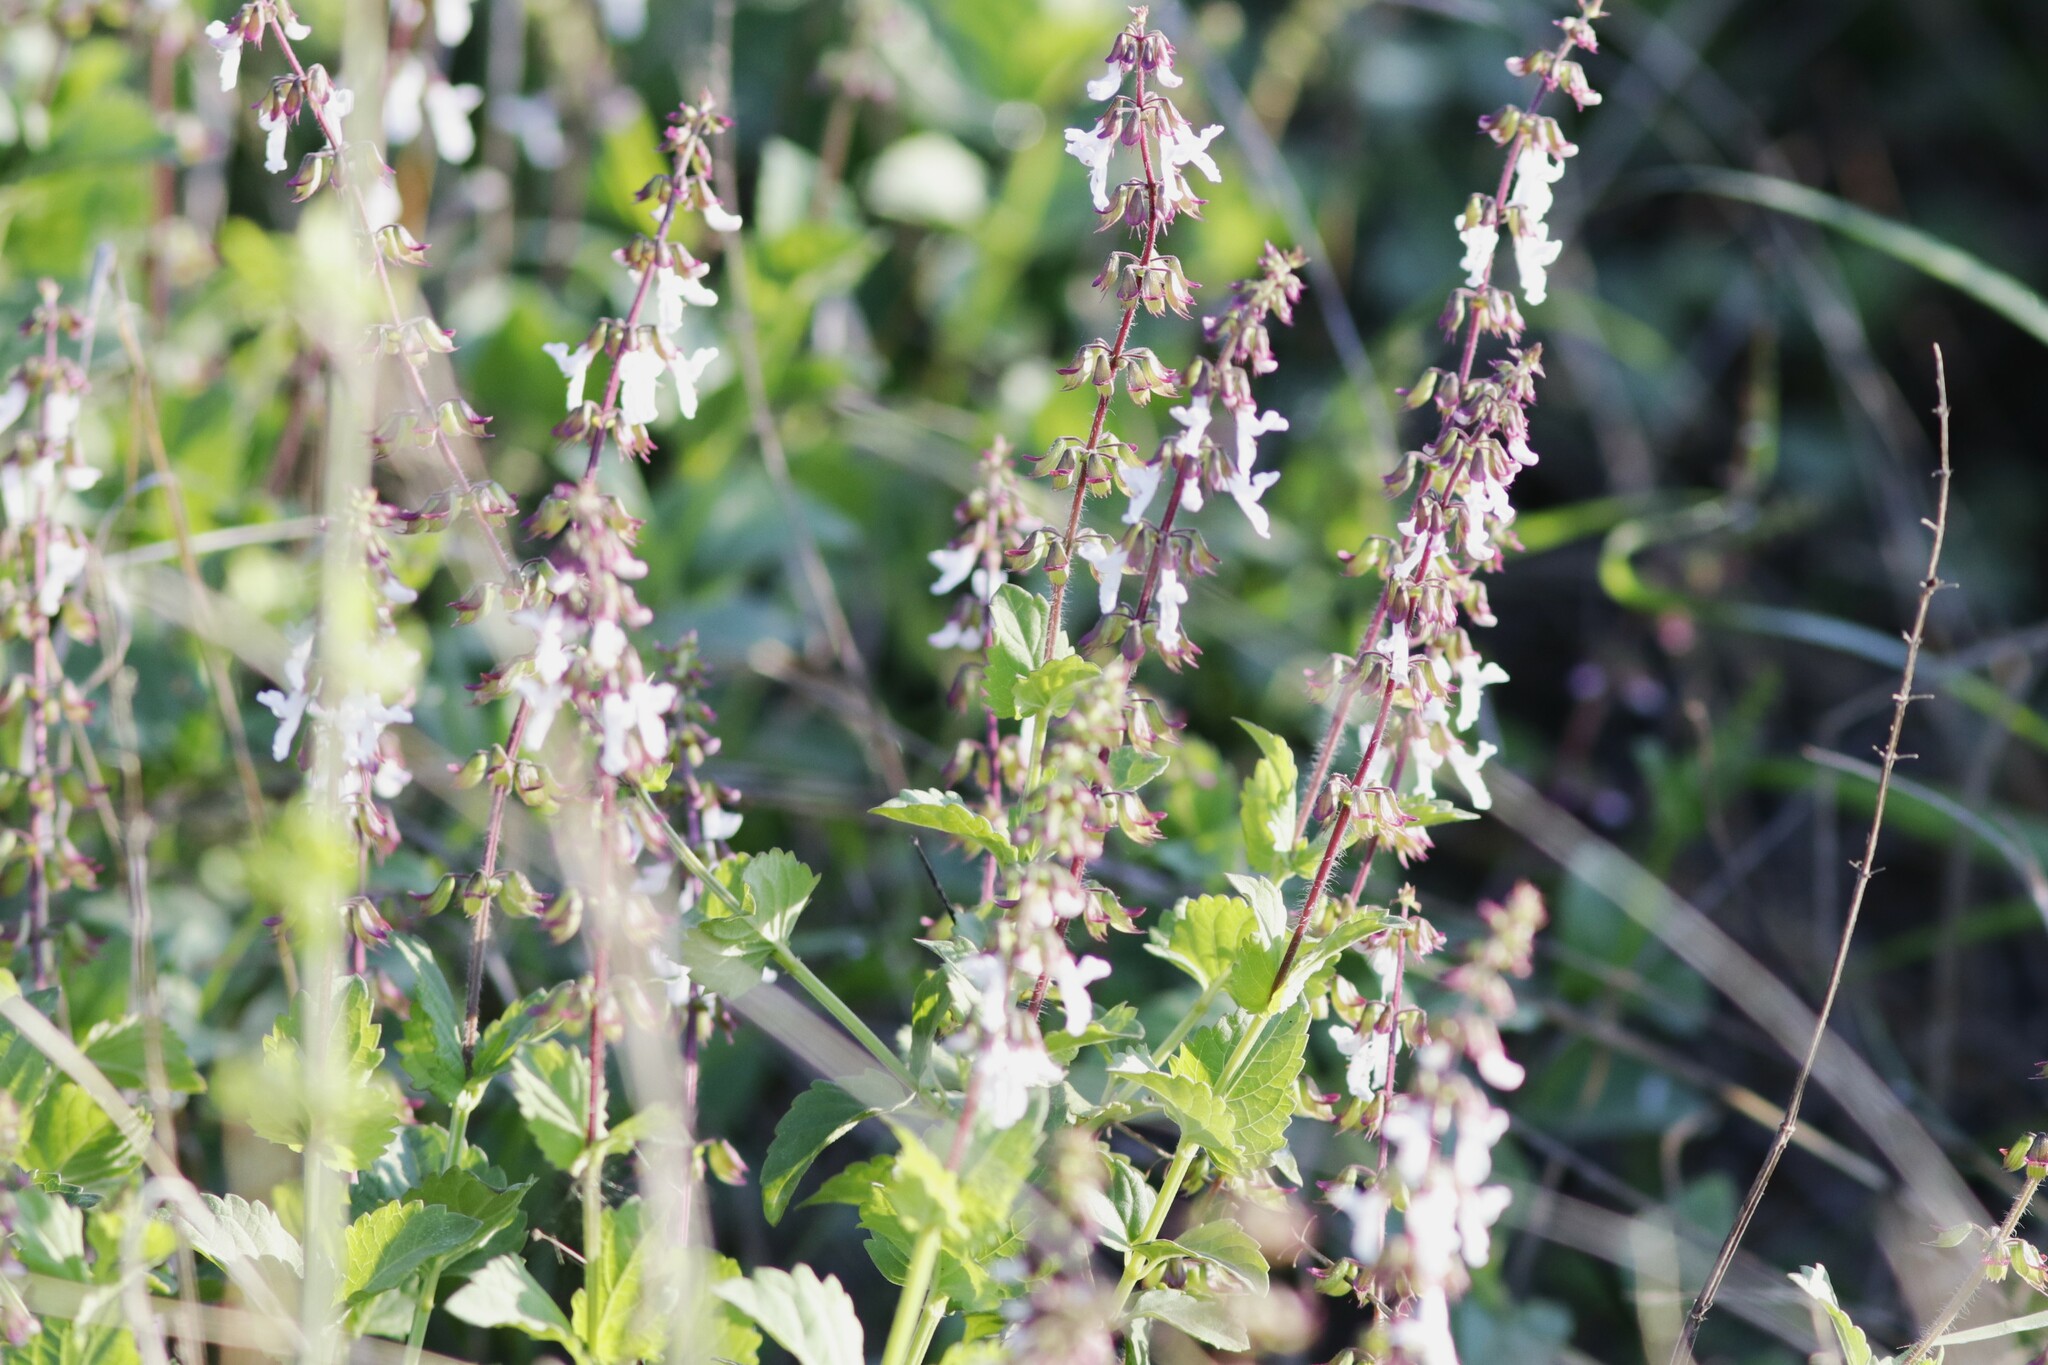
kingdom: Plantae
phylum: Tracheophyta
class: Magnoliopsida
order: Lamiales
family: Lamiaceae
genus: Orthosiphon
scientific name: Orthosiphon thymiflorus
